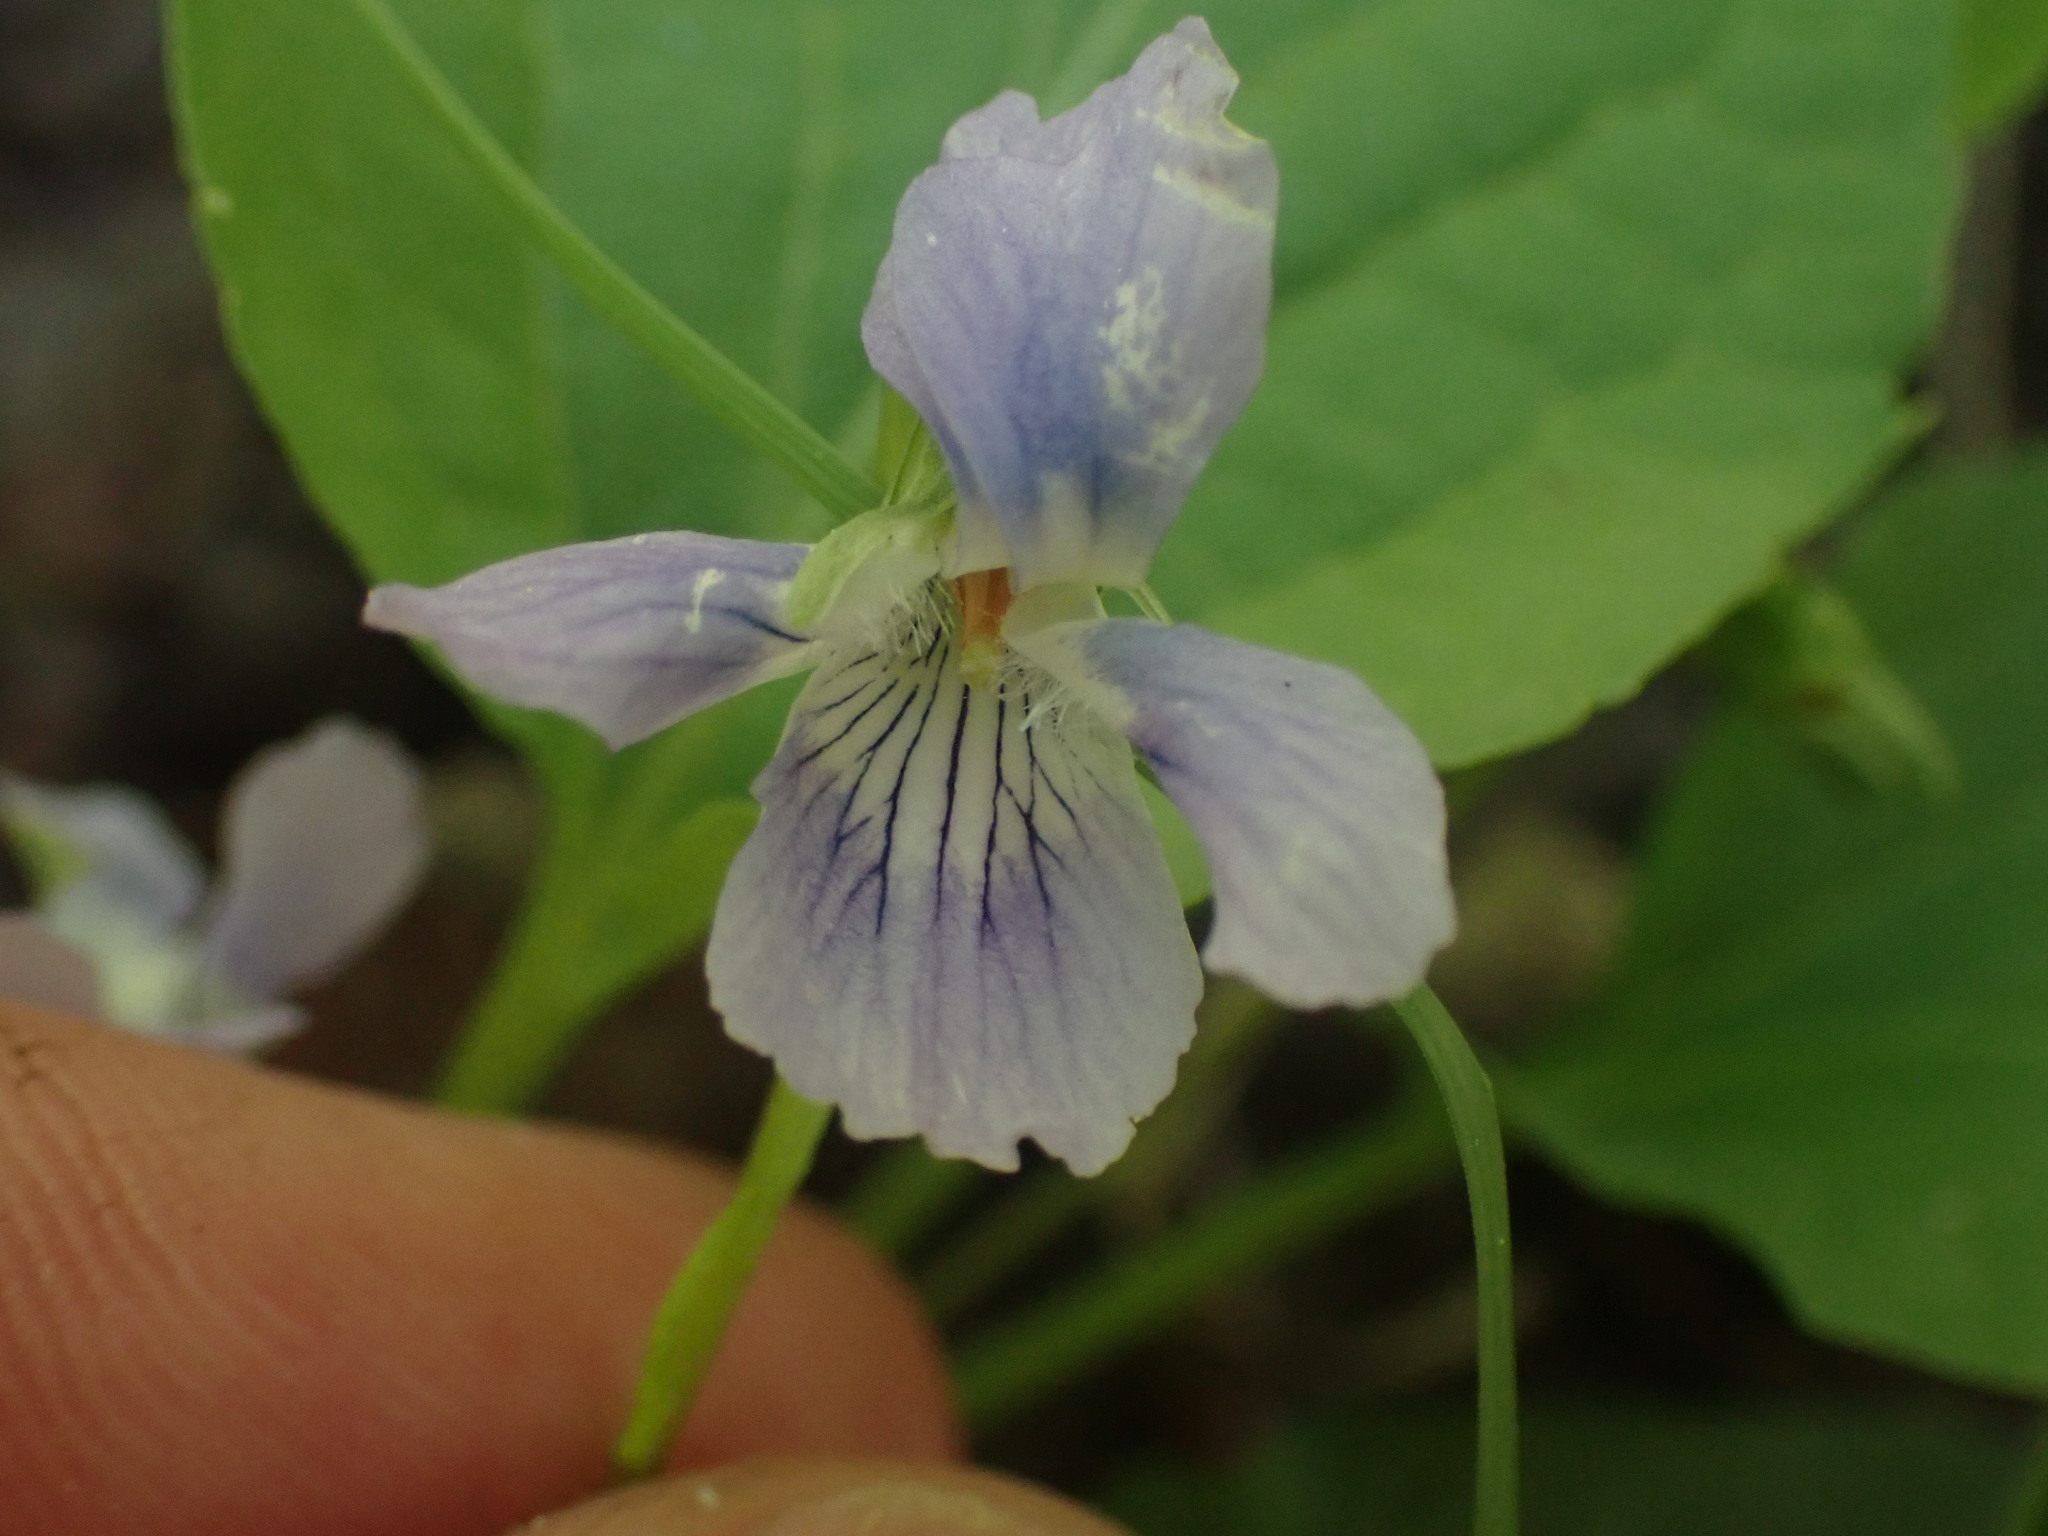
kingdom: Plantae
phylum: Tracheophyta
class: Magnoliopsida
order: Malpighiales
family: Violaceae
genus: Viola
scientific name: Viola adunca
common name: Sand violet
